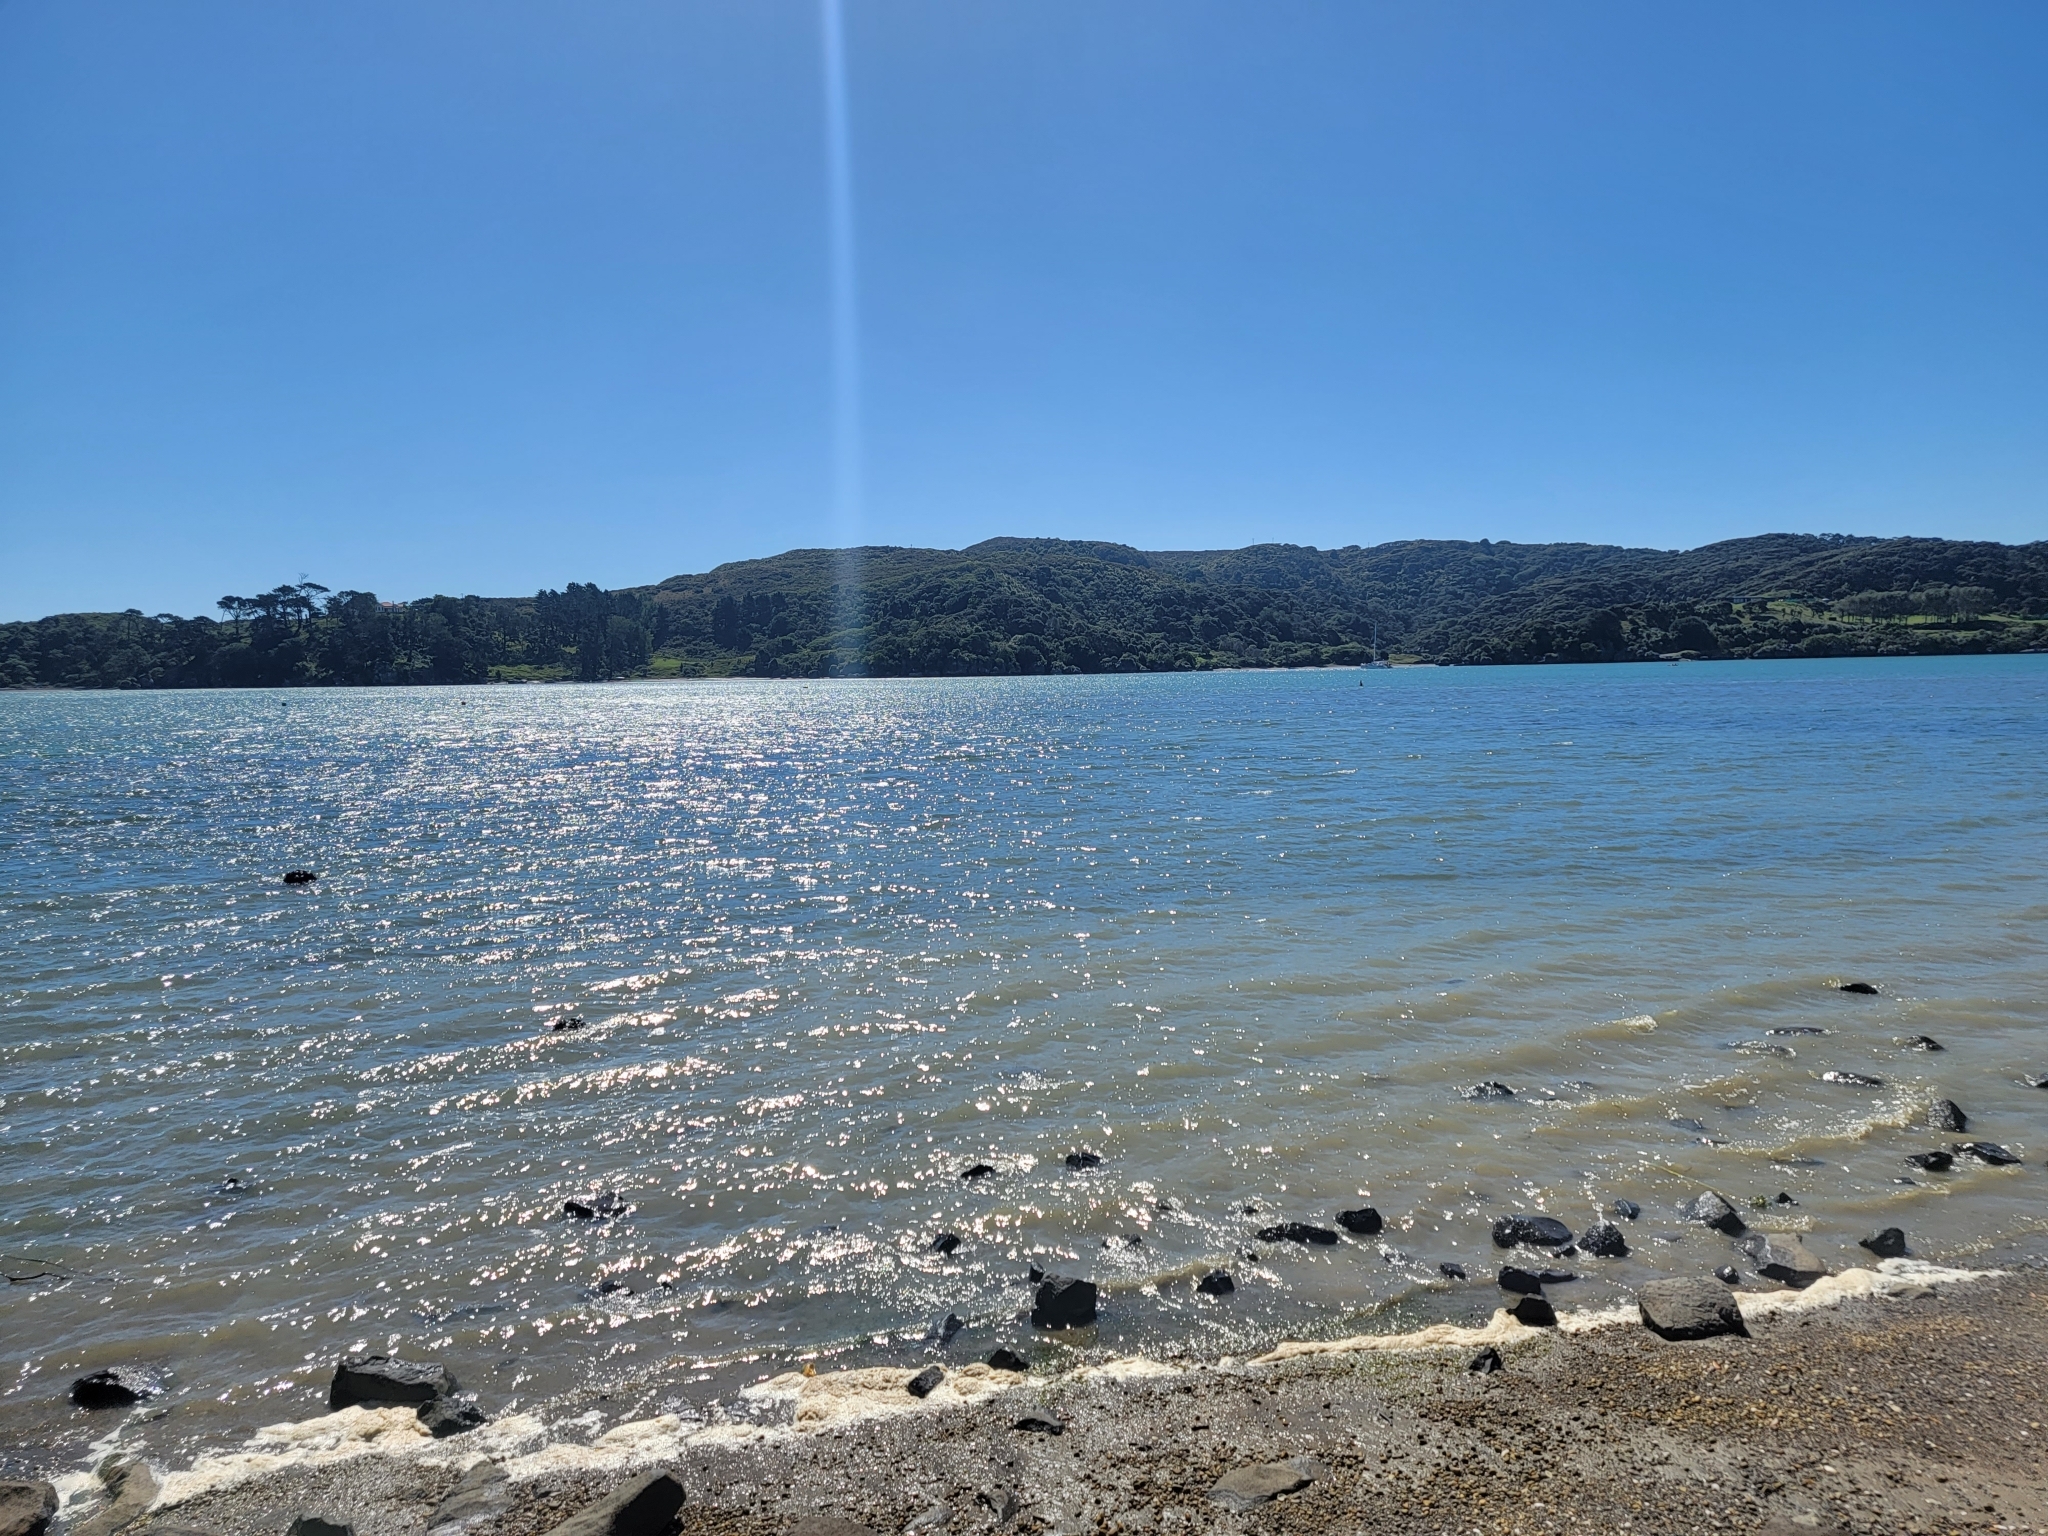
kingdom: Animalia
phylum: Chordata
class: Aves
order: Charadriiformes
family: Laridae
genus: Larus
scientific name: Larus dominicanus
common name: Kelp gull
